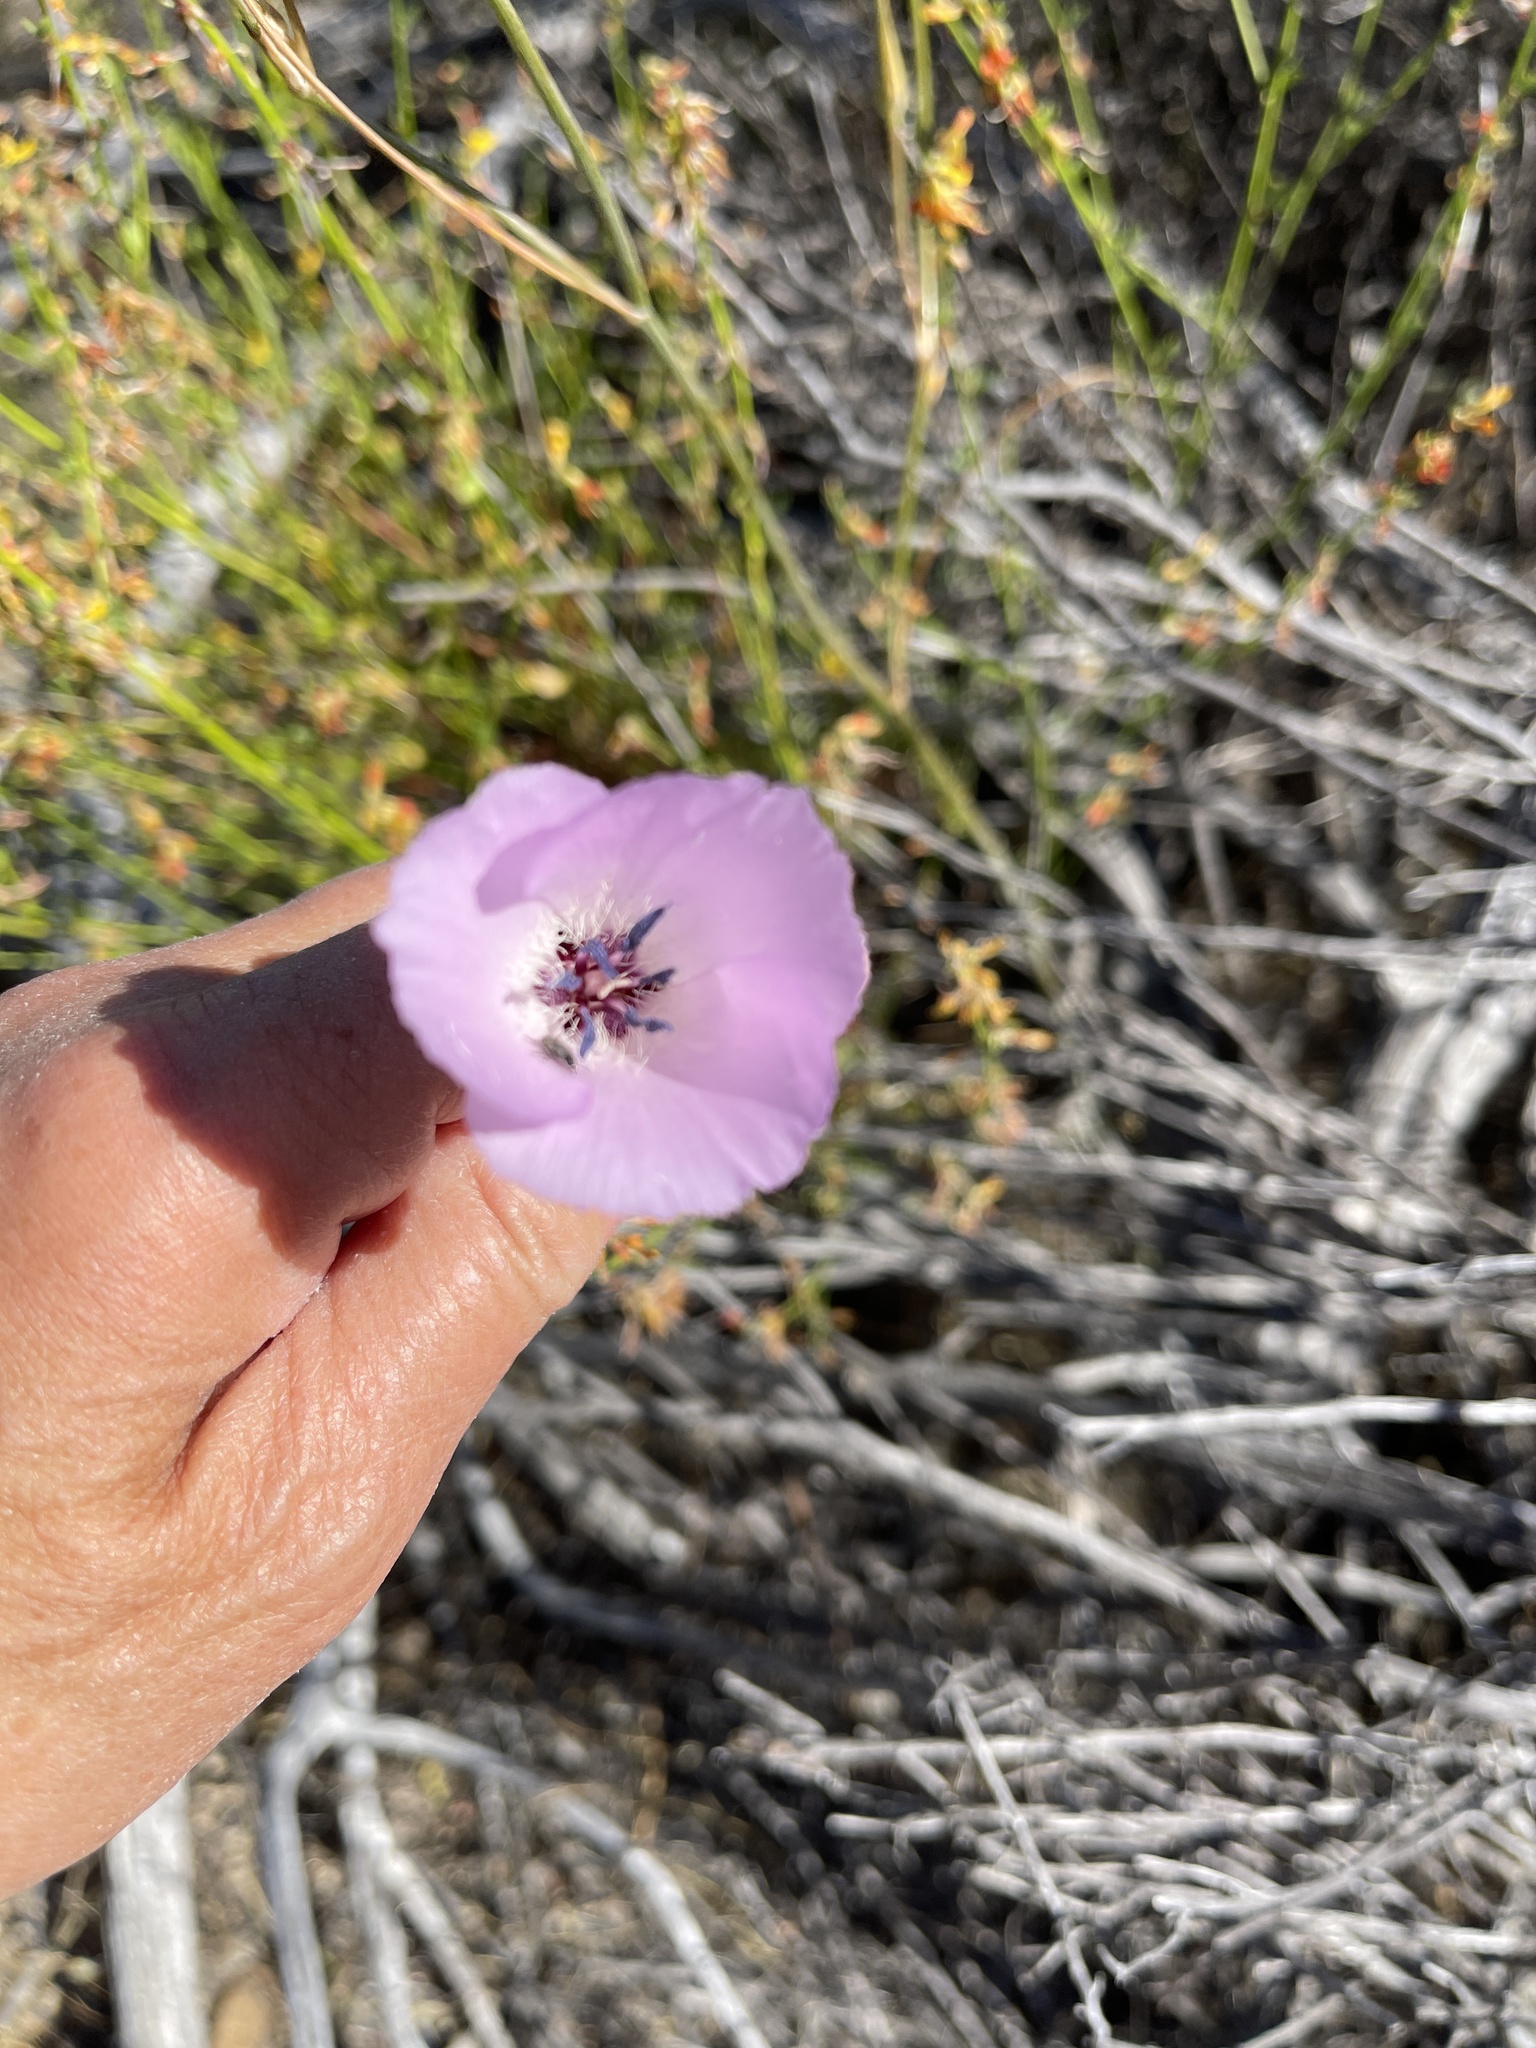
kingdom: Plantae
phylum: Tracheophyta
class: Liliopsida
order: Liliales
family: Liliaceae
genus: Calochortus
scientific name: Calochortus splendens
